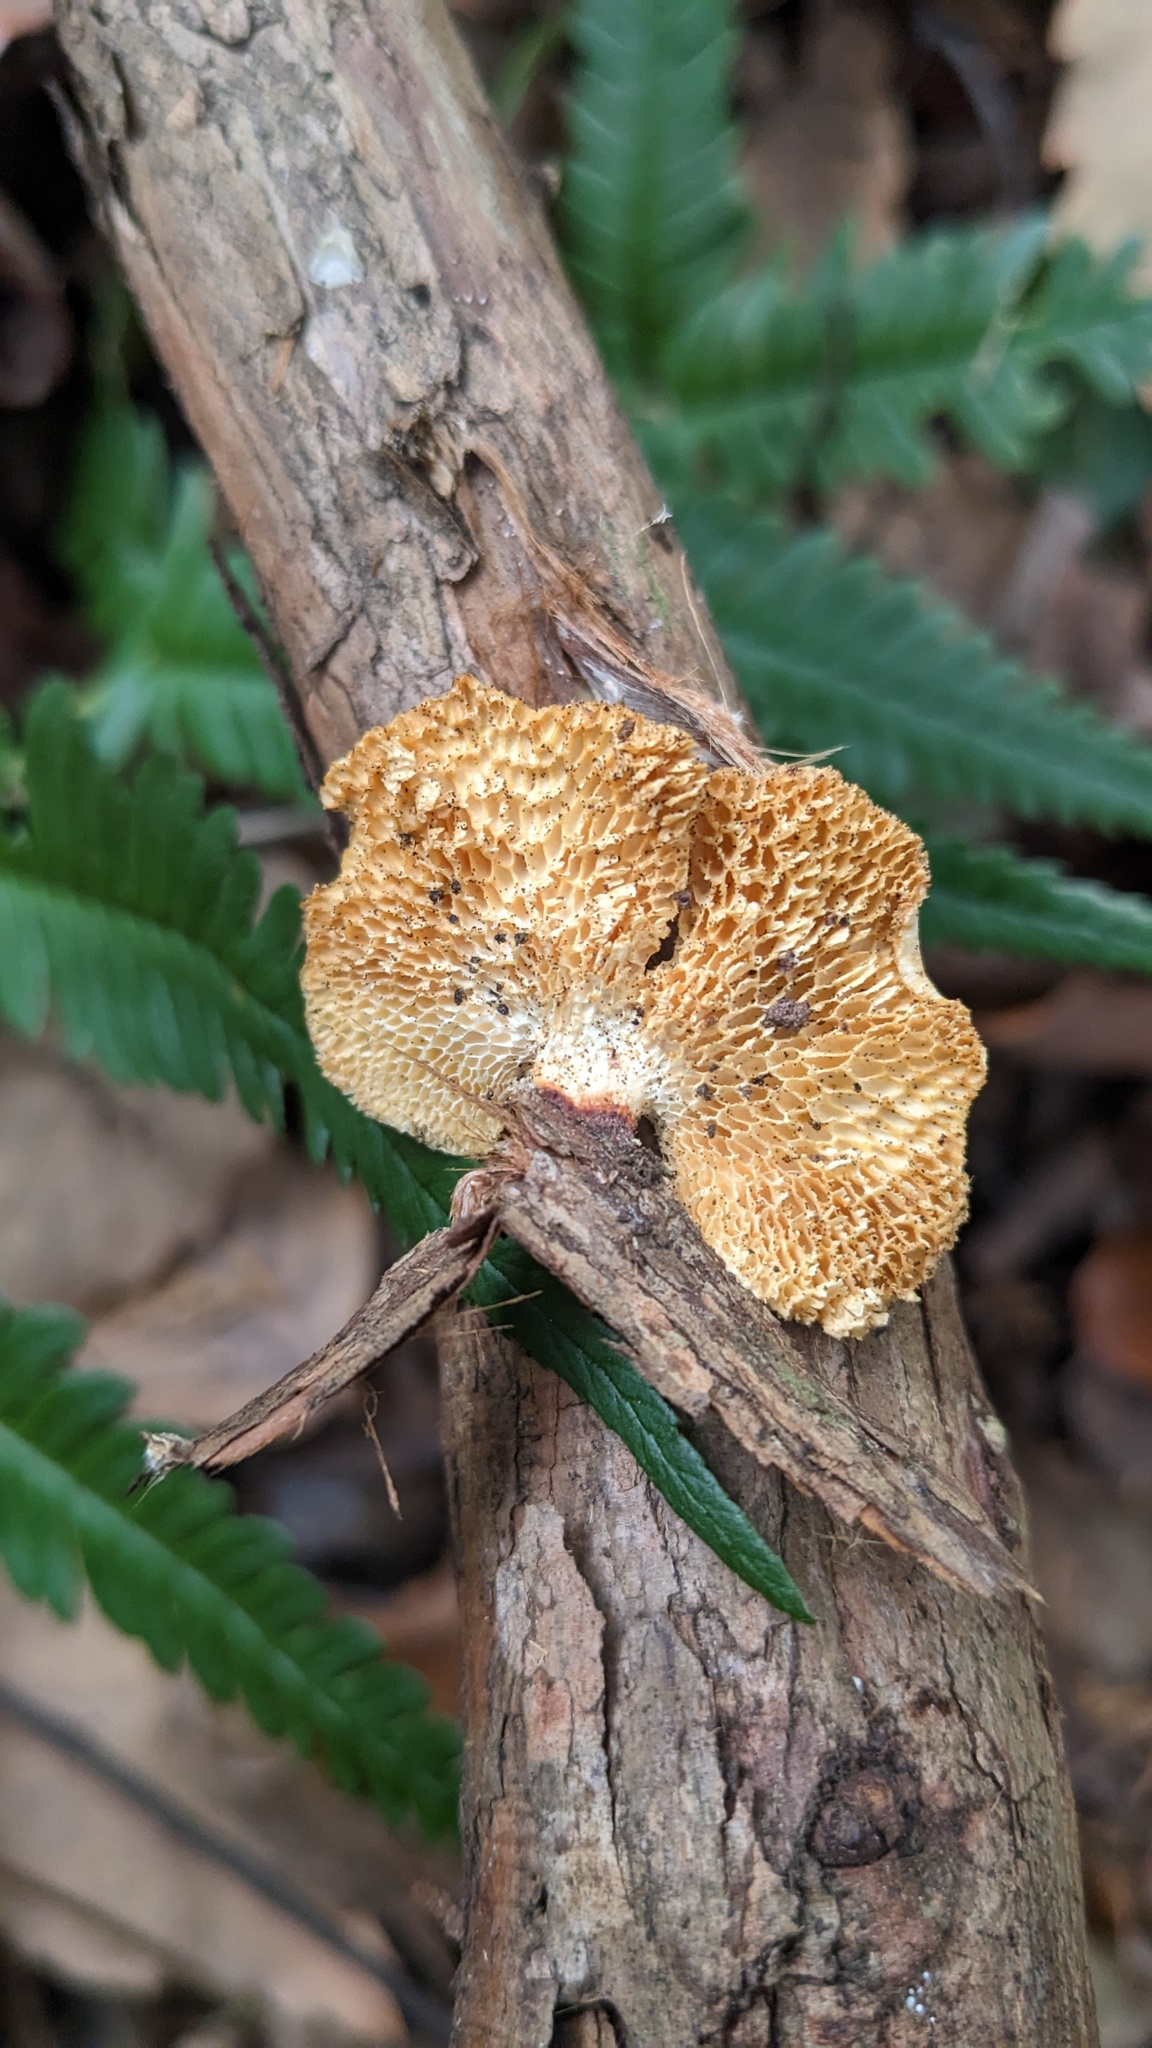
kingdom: Fungi
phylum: Basidiomycota
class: Agaricomycetes
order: Polyporales
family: Polyporaceae
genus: Neofavolus
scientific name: Neofavolus alveolaris
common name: Hexagonal-pored polypore
